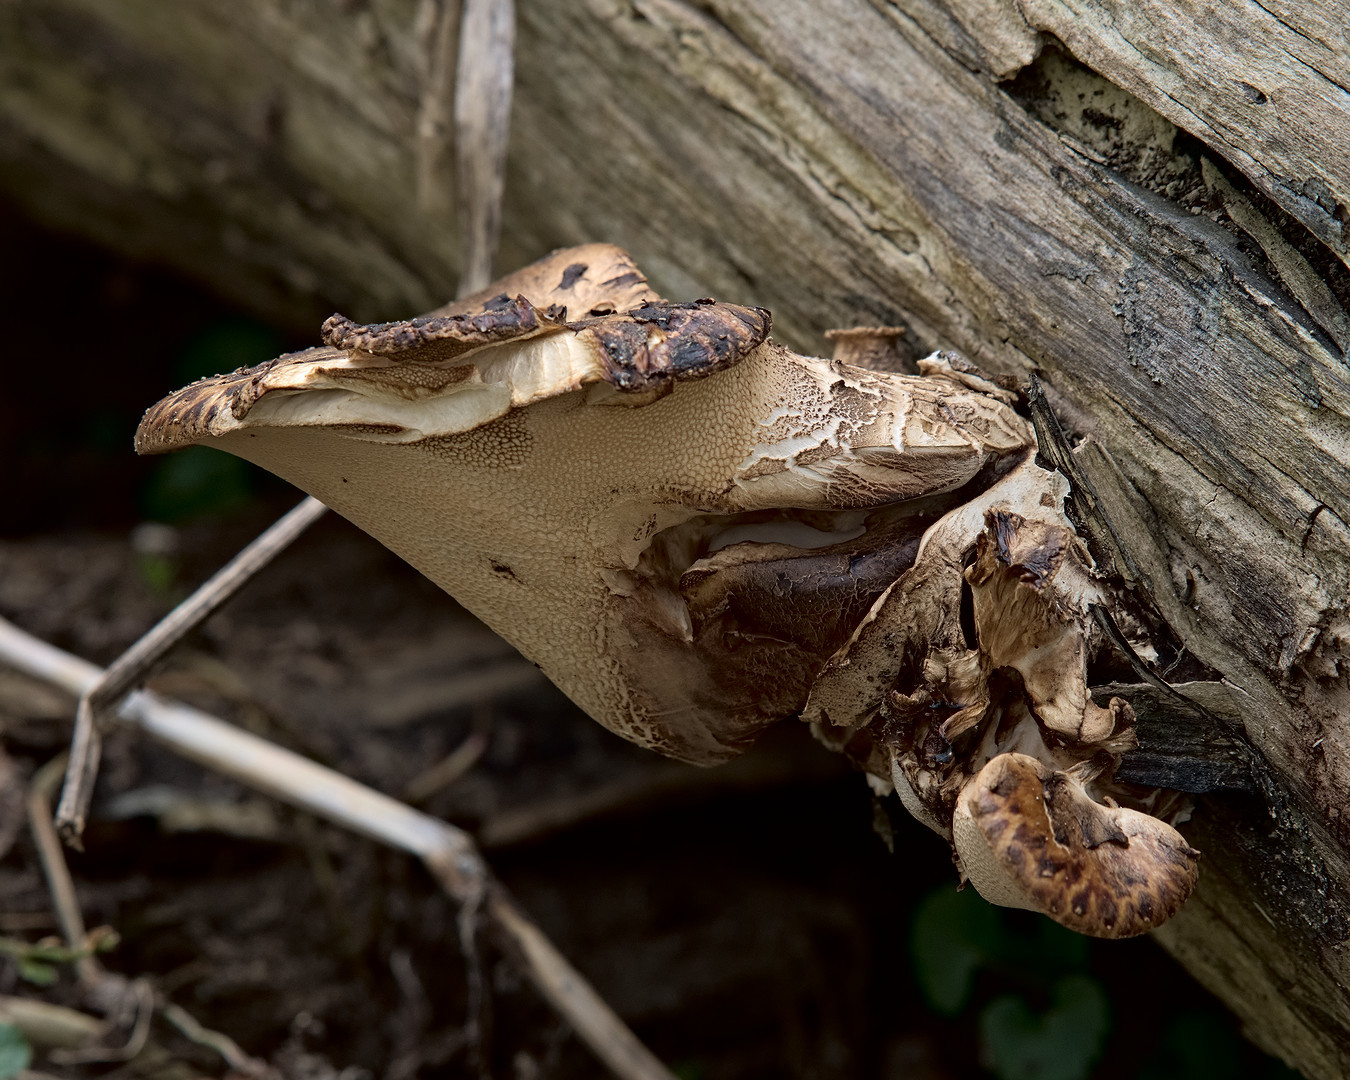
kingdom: Fungi
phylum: Basidiomycota
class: Agaricomycetes
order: Polyporales
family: Polyporaceae
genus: Cerioporus
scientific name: Cerioporus squamosus
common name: Dryad's saddle
